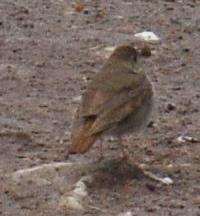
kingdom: Animalia
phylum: Chordata
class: Aves
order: Passeriformes
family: Turdidae
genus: Catharus
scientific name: Catharus guttatus
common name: Hermit thrush
